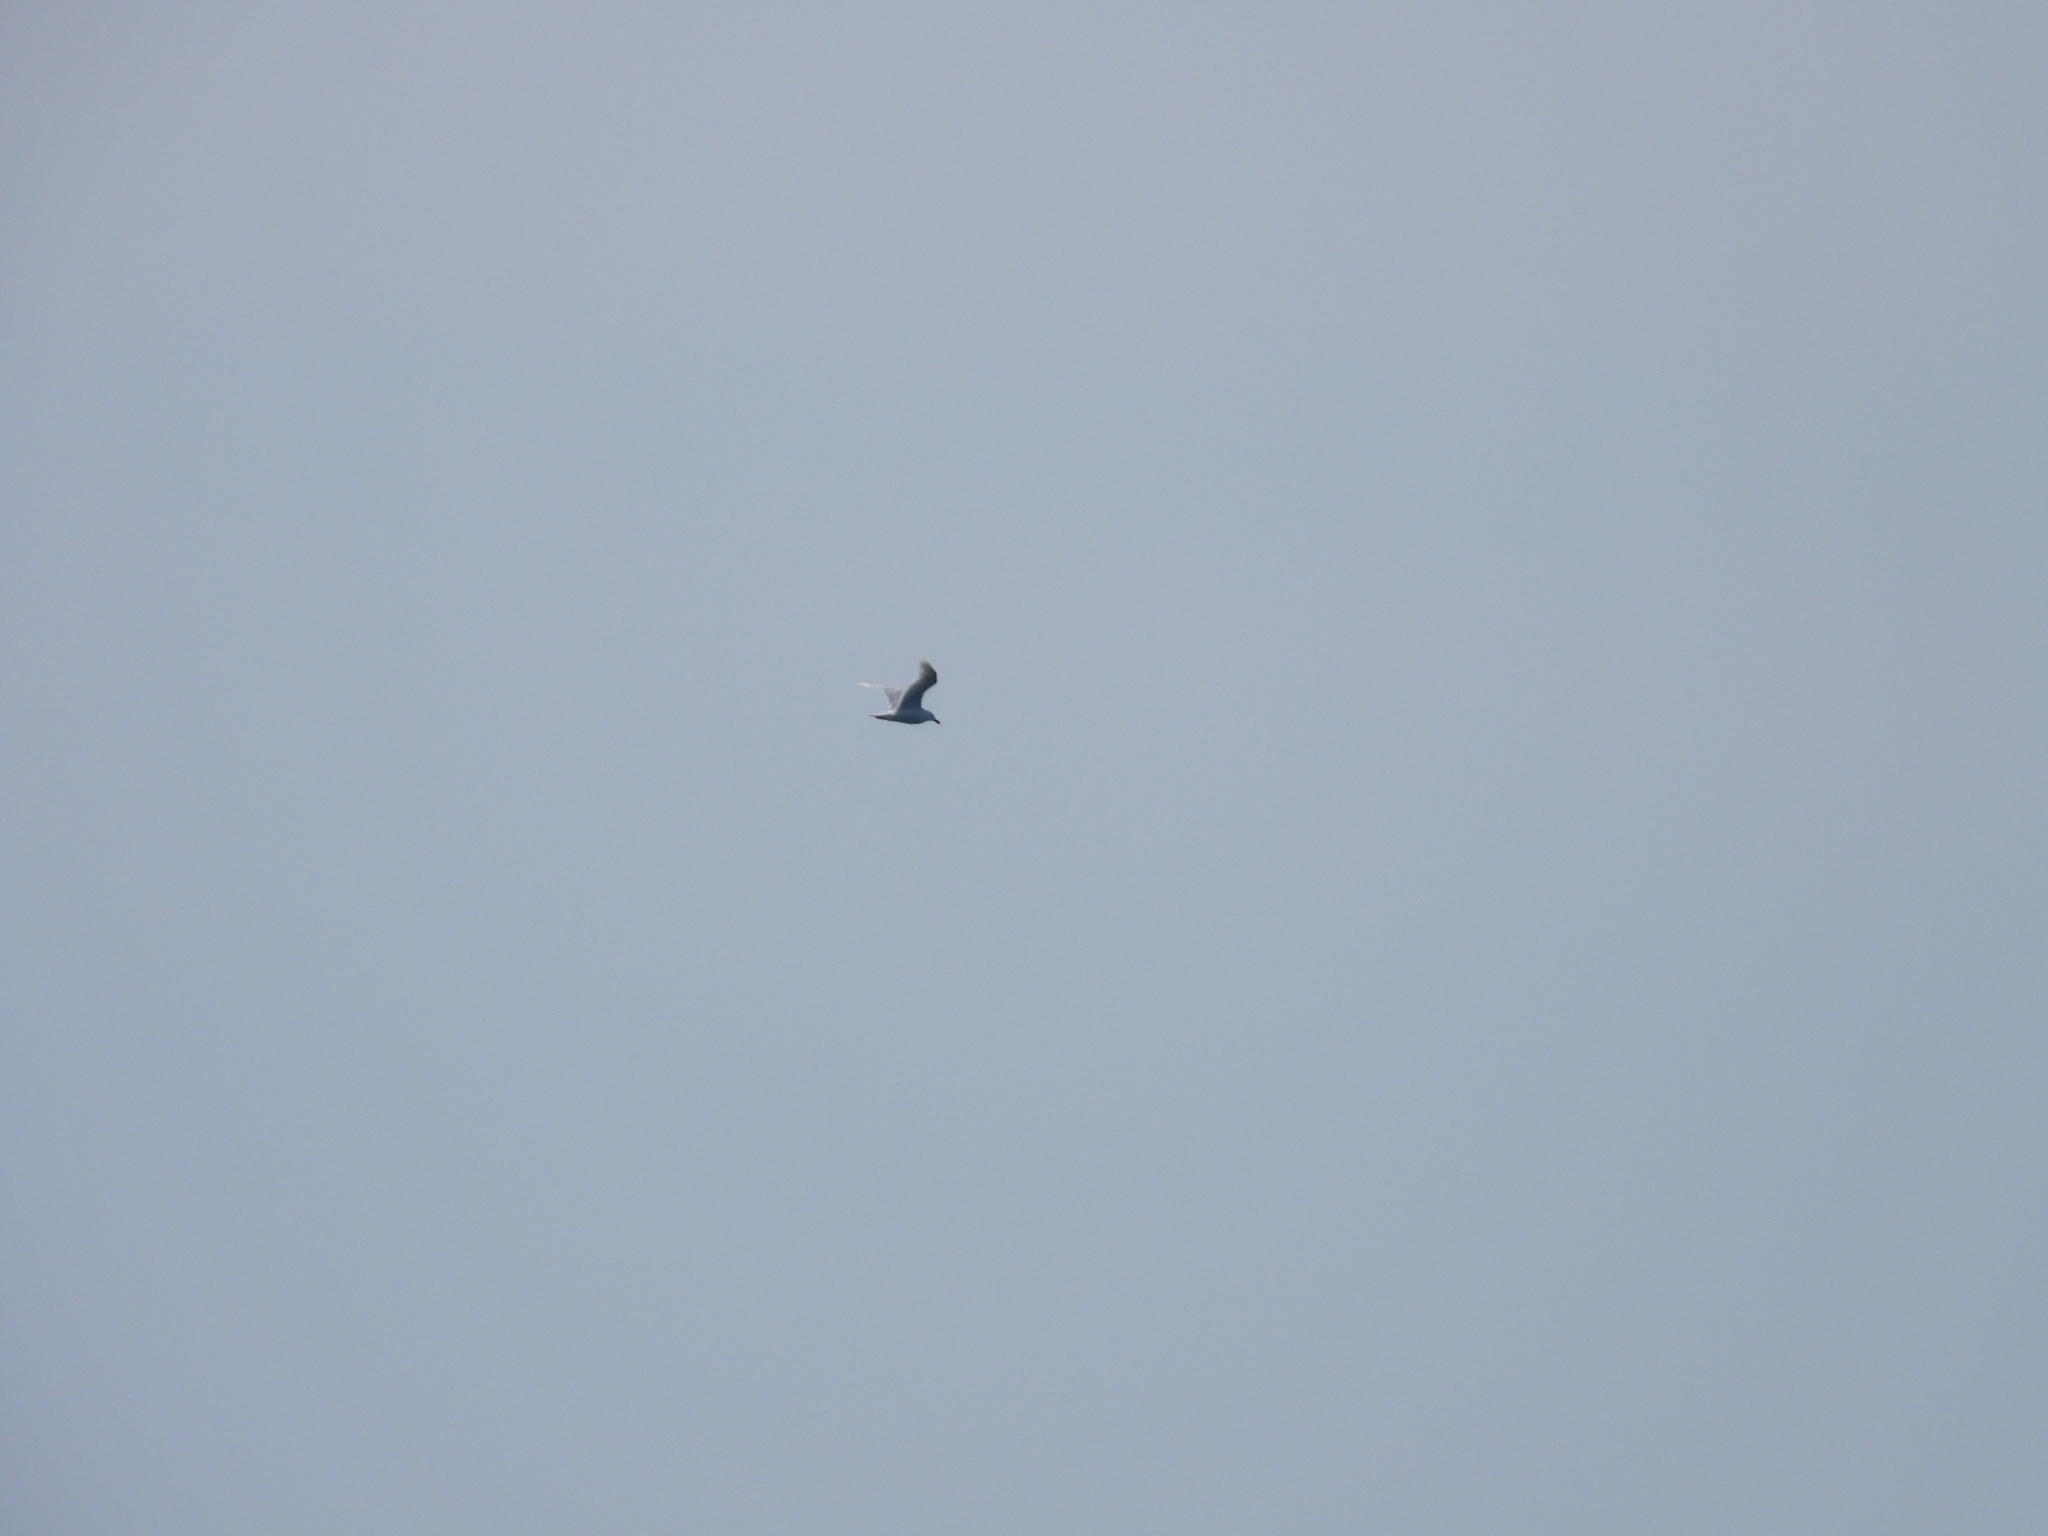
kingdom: Animalia
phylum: Chordata
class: Aves
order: Charadriiformes
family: Laridae
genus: Larus
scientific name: Larus hyperboreus
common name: Glaucous gull
